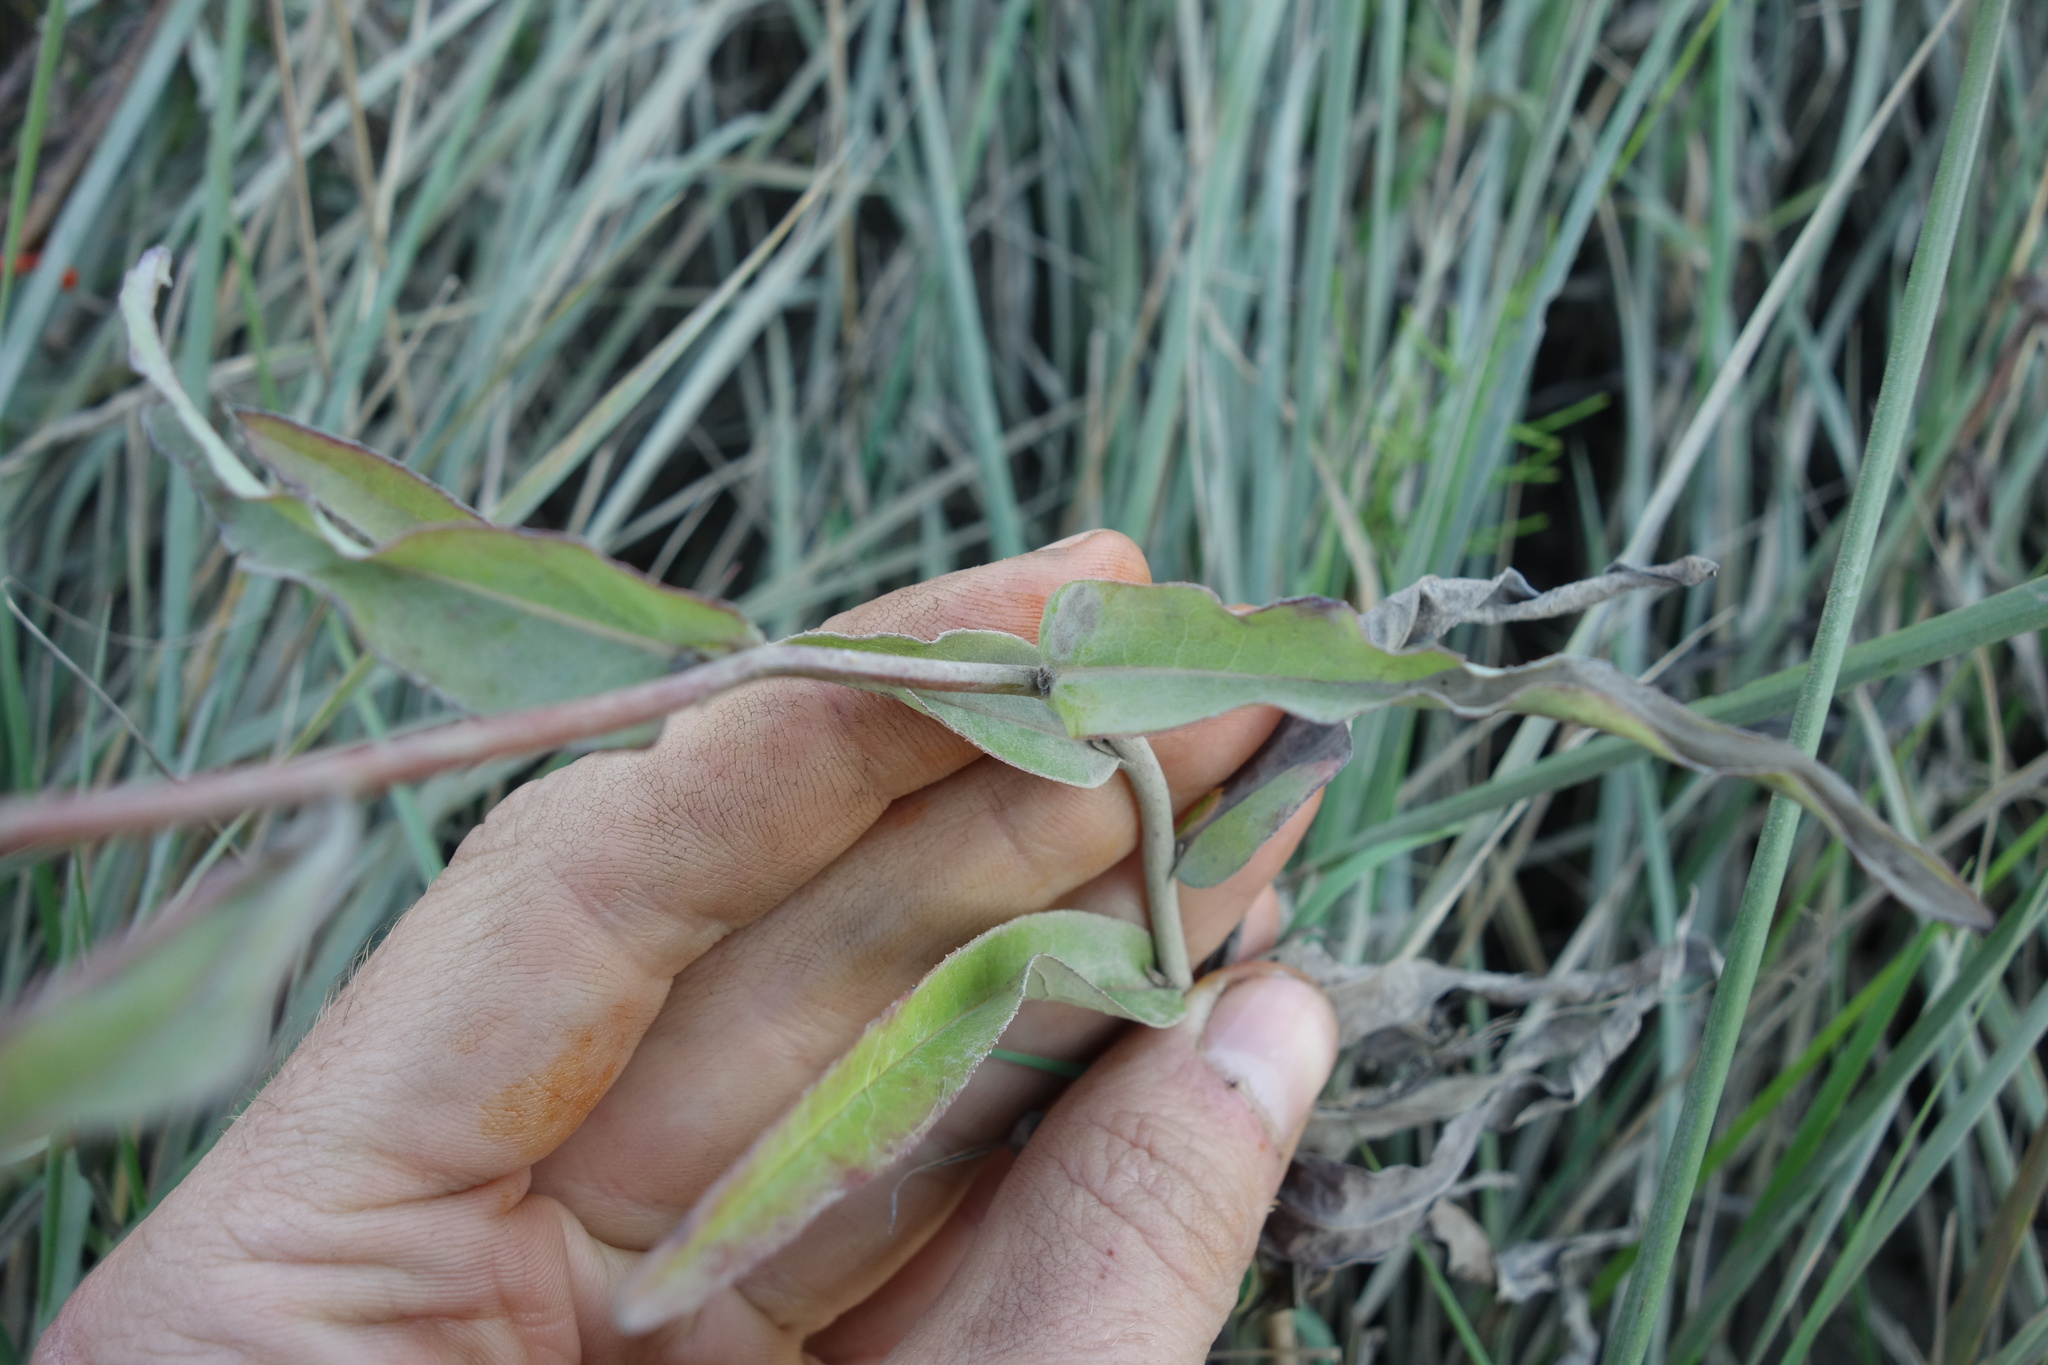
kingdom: Plantae
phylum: Tracheophyta
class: Magnoliopsida
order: Asterales
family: Asteraceae
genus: Lactuca
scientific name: Lactuca sibirica
